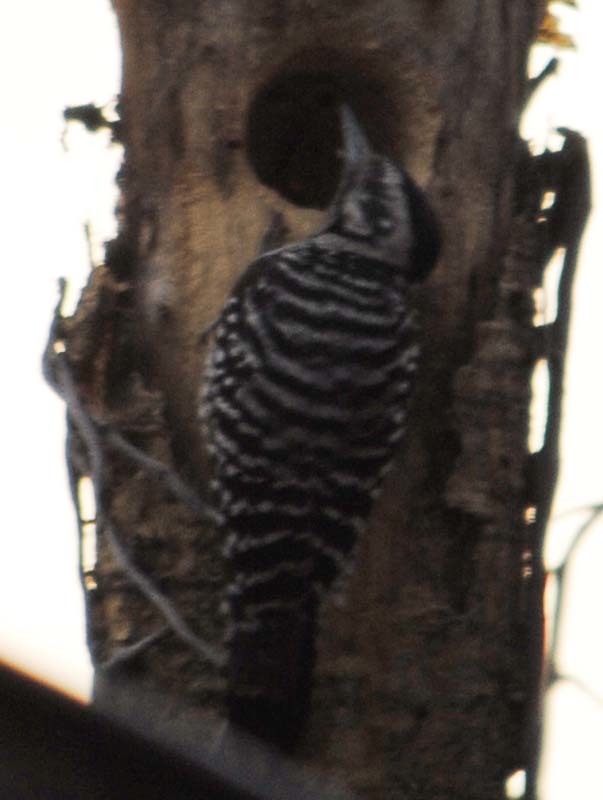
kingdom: Animalia
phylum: Chordata
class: Aves
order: Piciformes
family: Picidae
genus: Dryobates
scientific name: Dryobates scalaris
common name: Ladder-backed woodpecker
